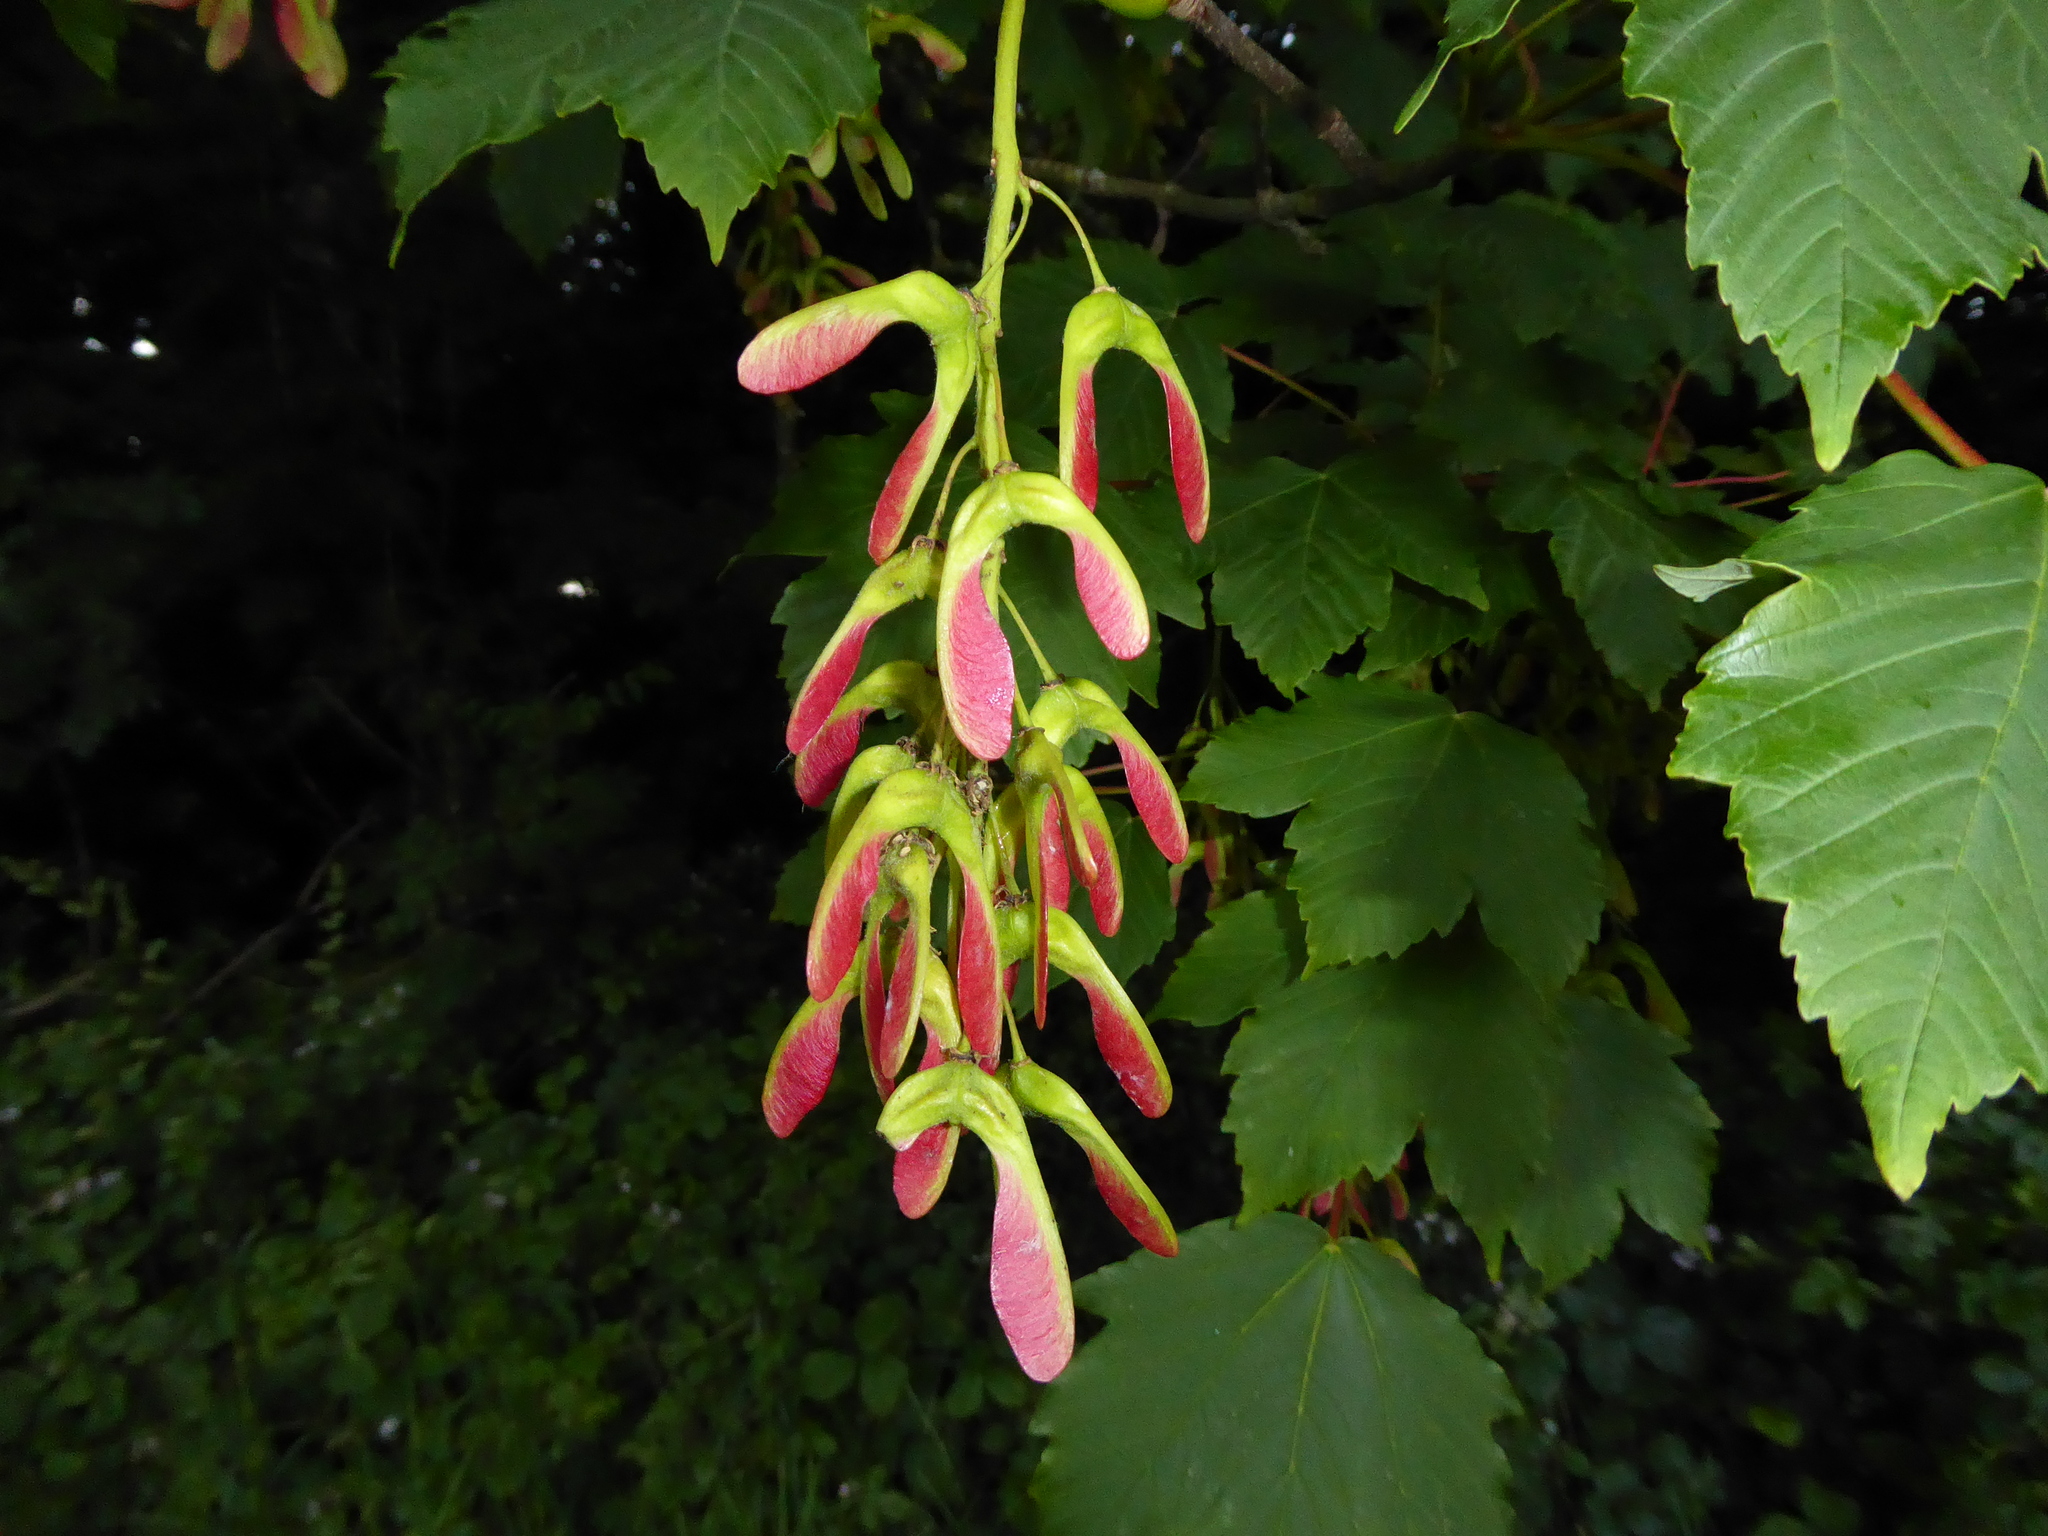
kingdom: Plantae
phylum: Tracheophyta
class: Magnoliopsida
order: Sapindales
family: Sapindaceae
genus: Acer
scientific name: Acer pseudoplatanus
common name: Sycamore
